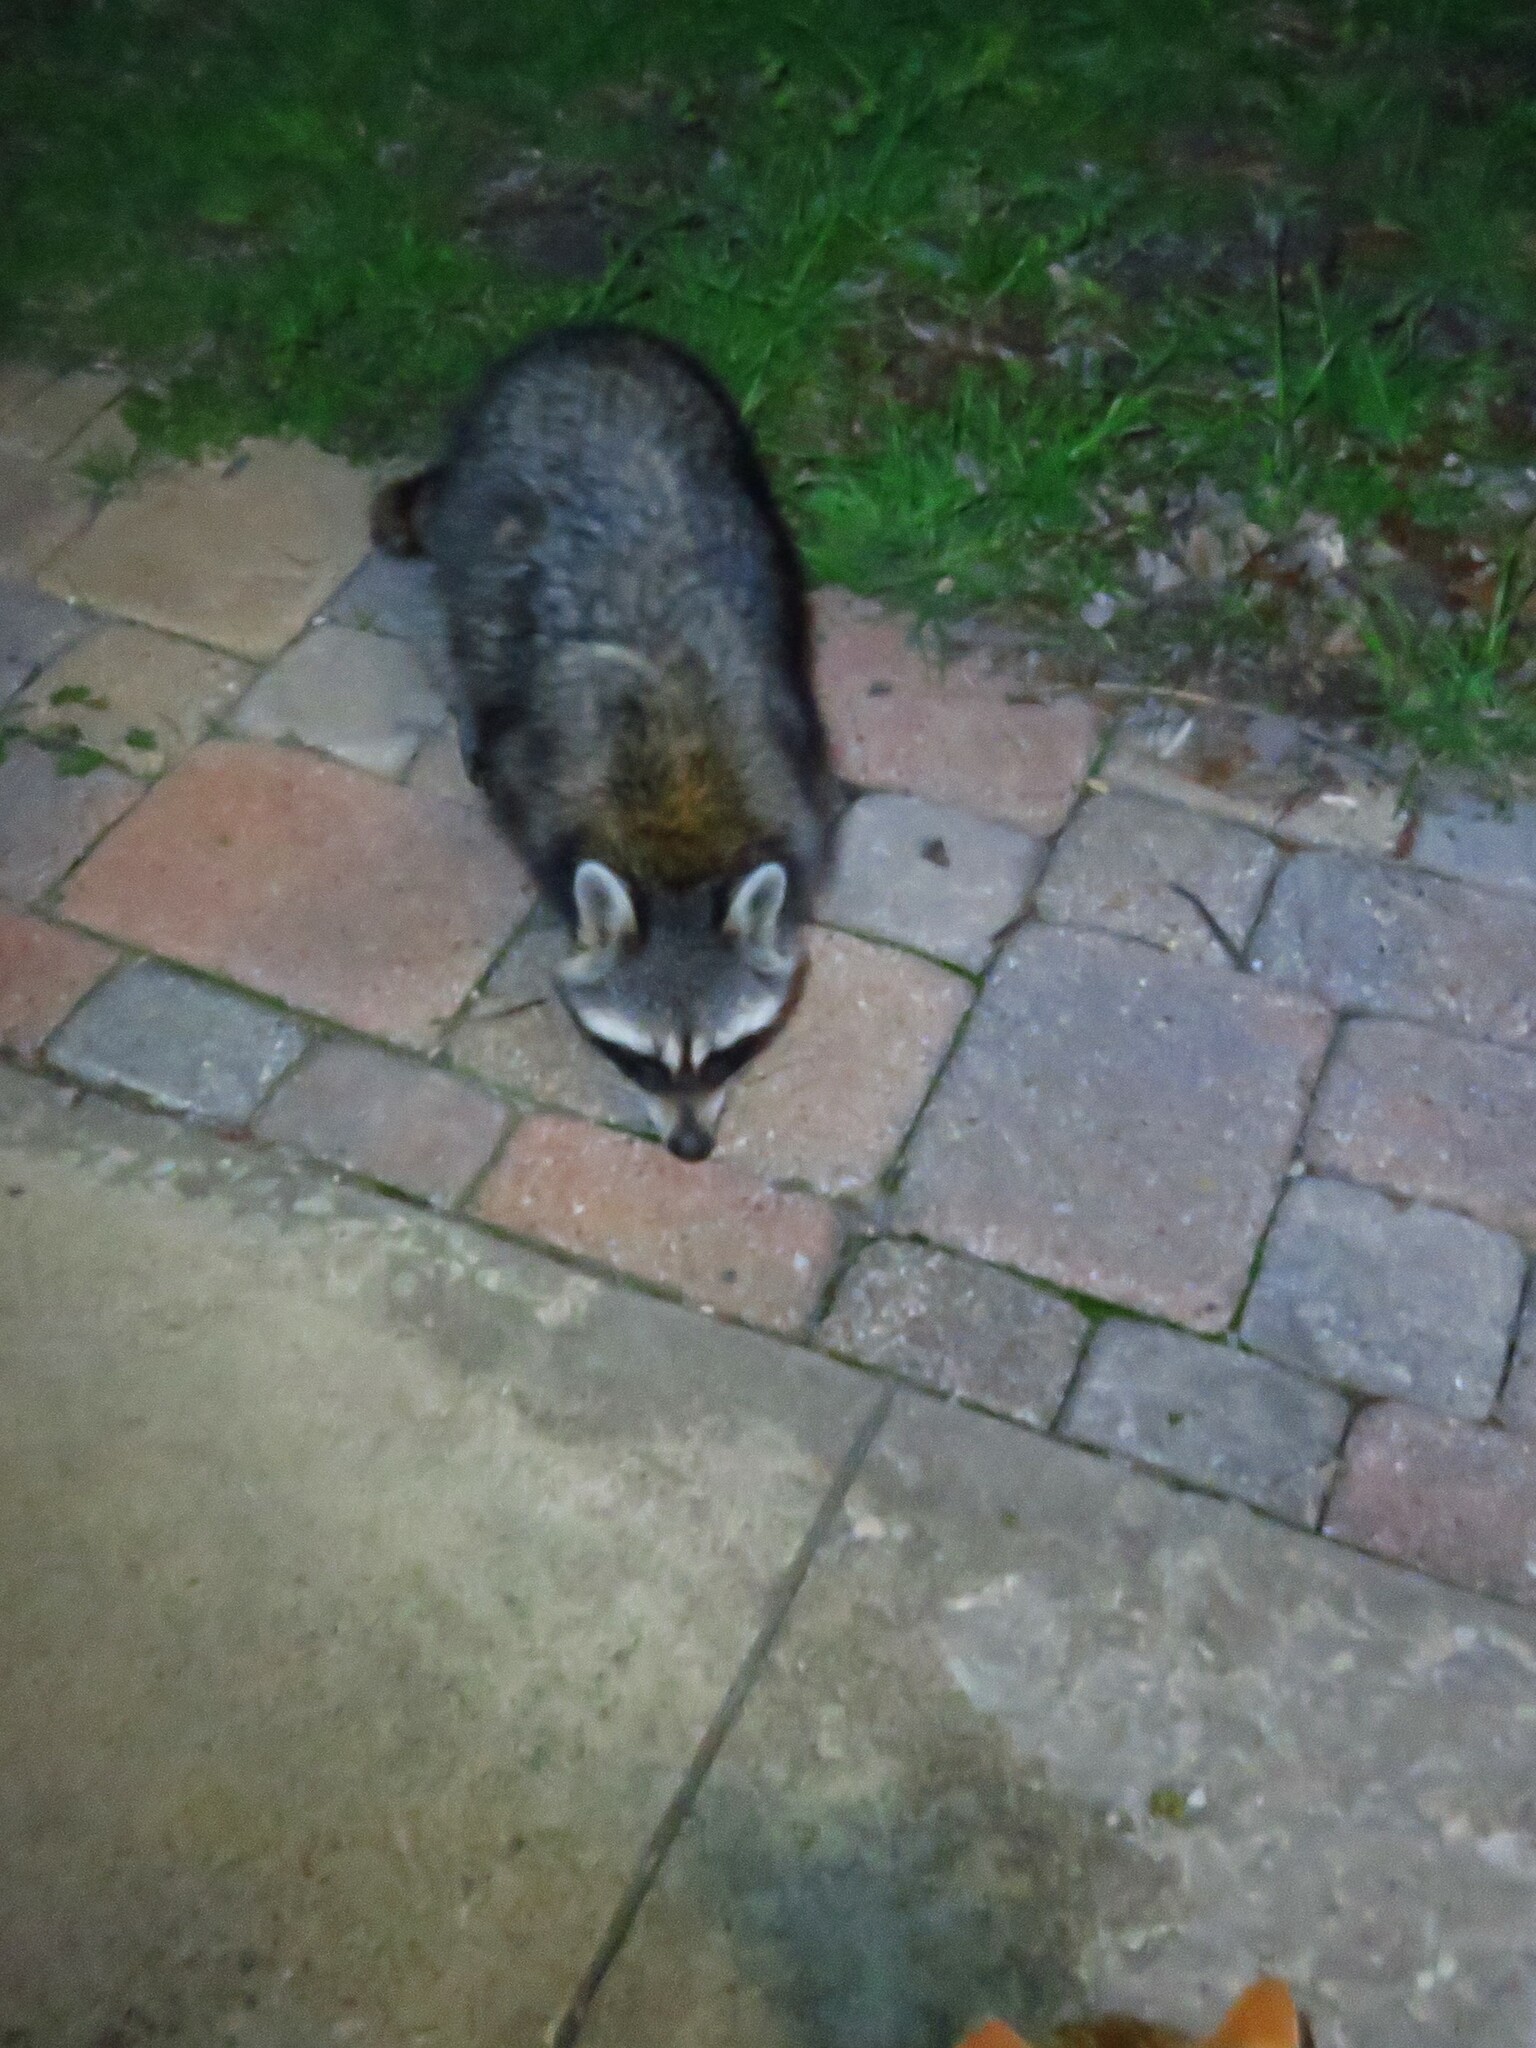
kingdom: Animalia
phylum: Chordata
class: Mammalia
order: Carnivora
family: Procyonidae
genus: Procyon
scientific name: Procyon lotor
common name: Raccoon
